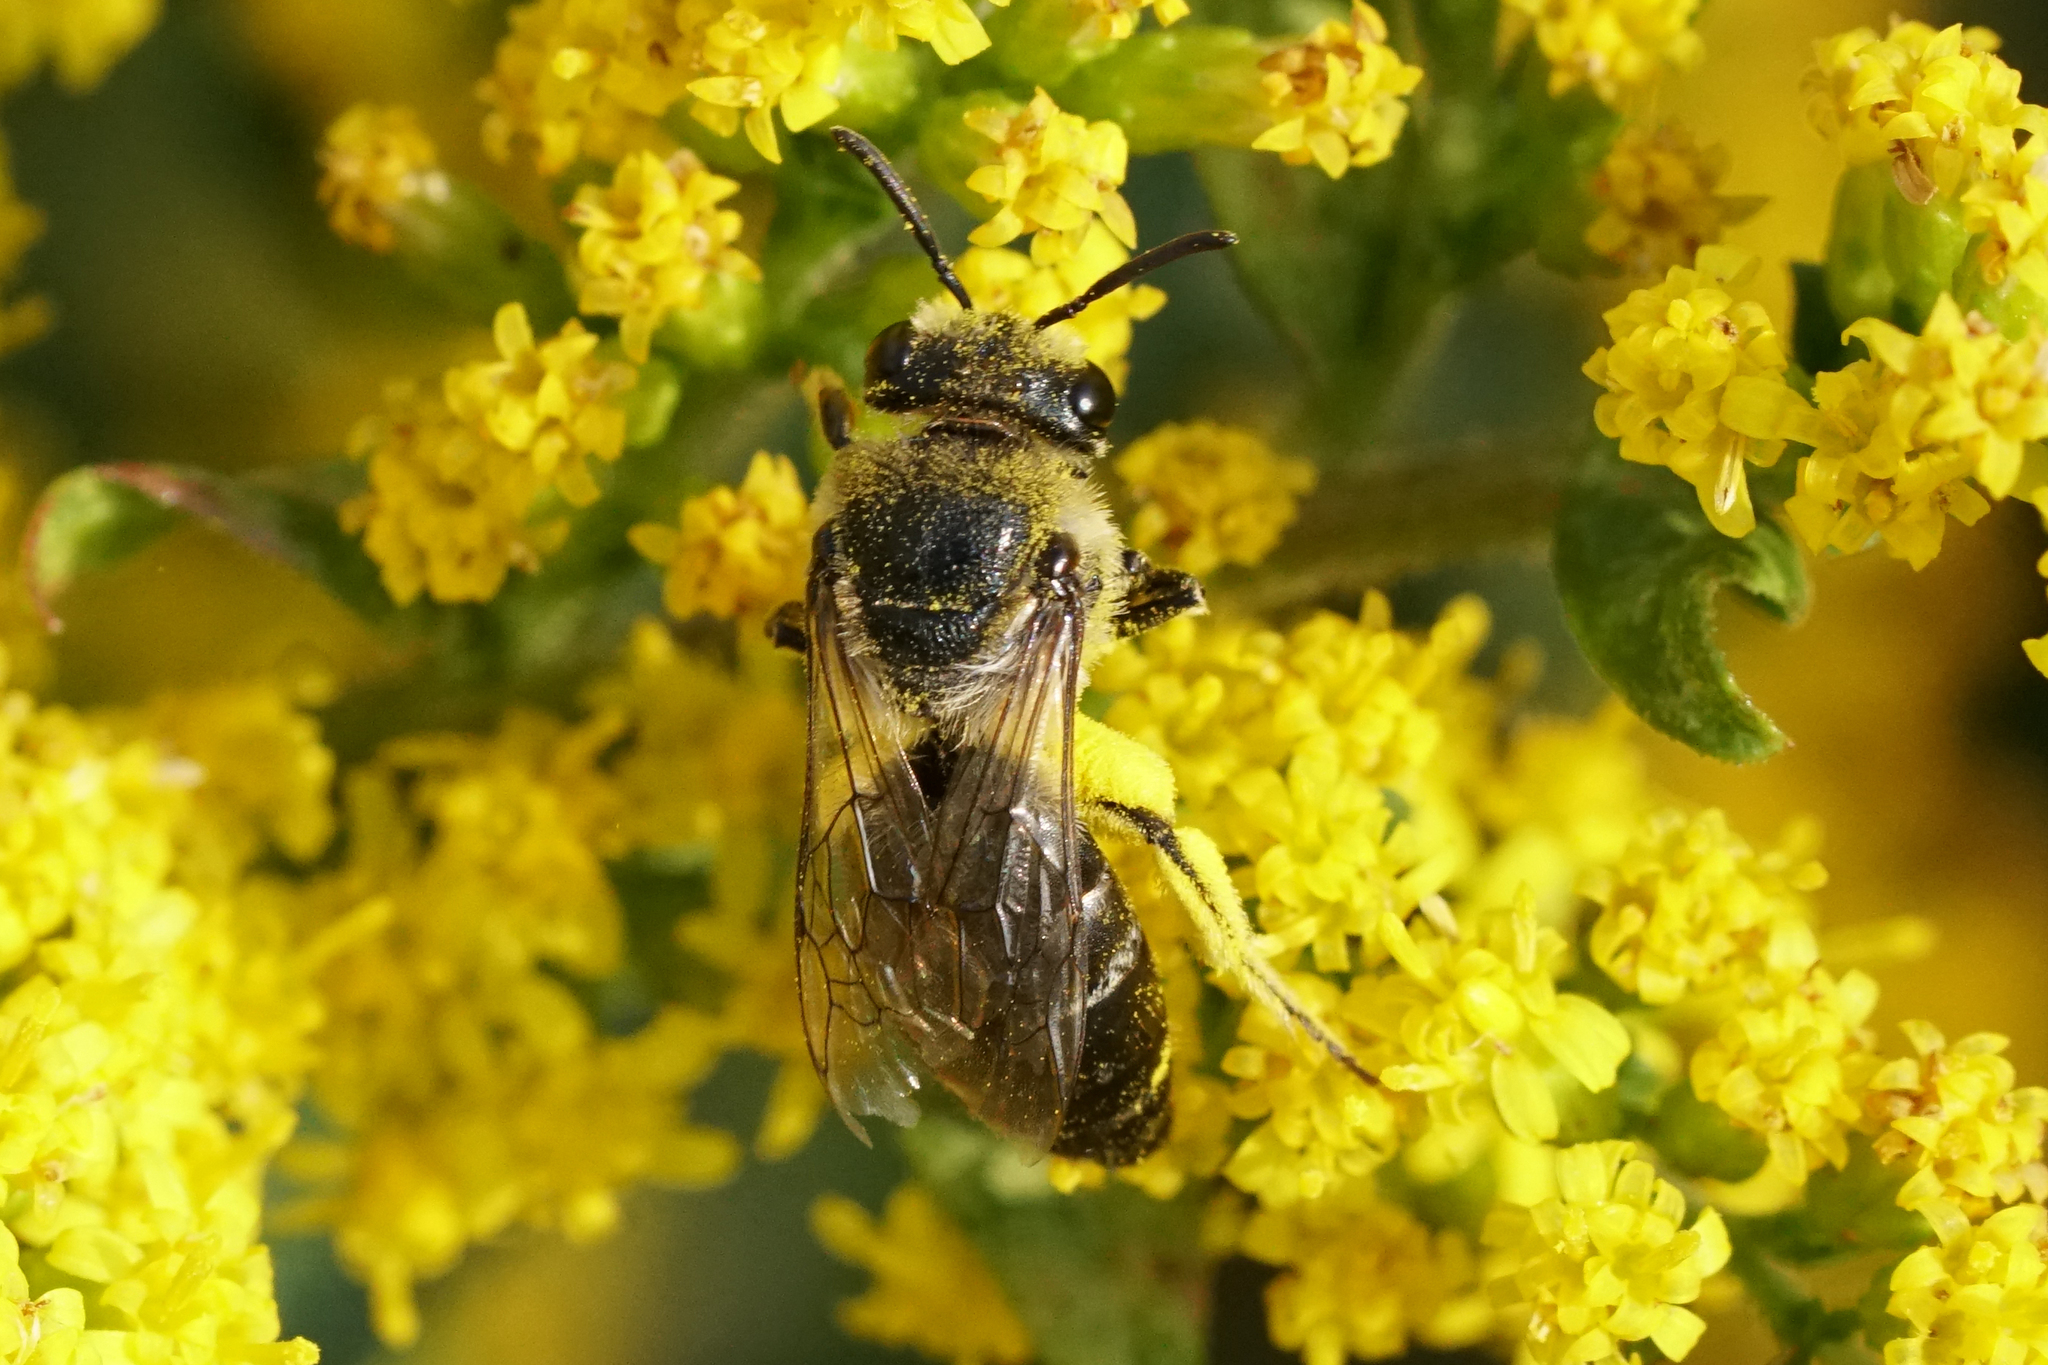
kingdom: Animalia
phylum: Arthropoda
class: Insecta
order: Hymenoptera
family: Colletidae
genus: Colletes
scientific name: Colletes simulans
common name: Spine-shouldered cellophane bee
